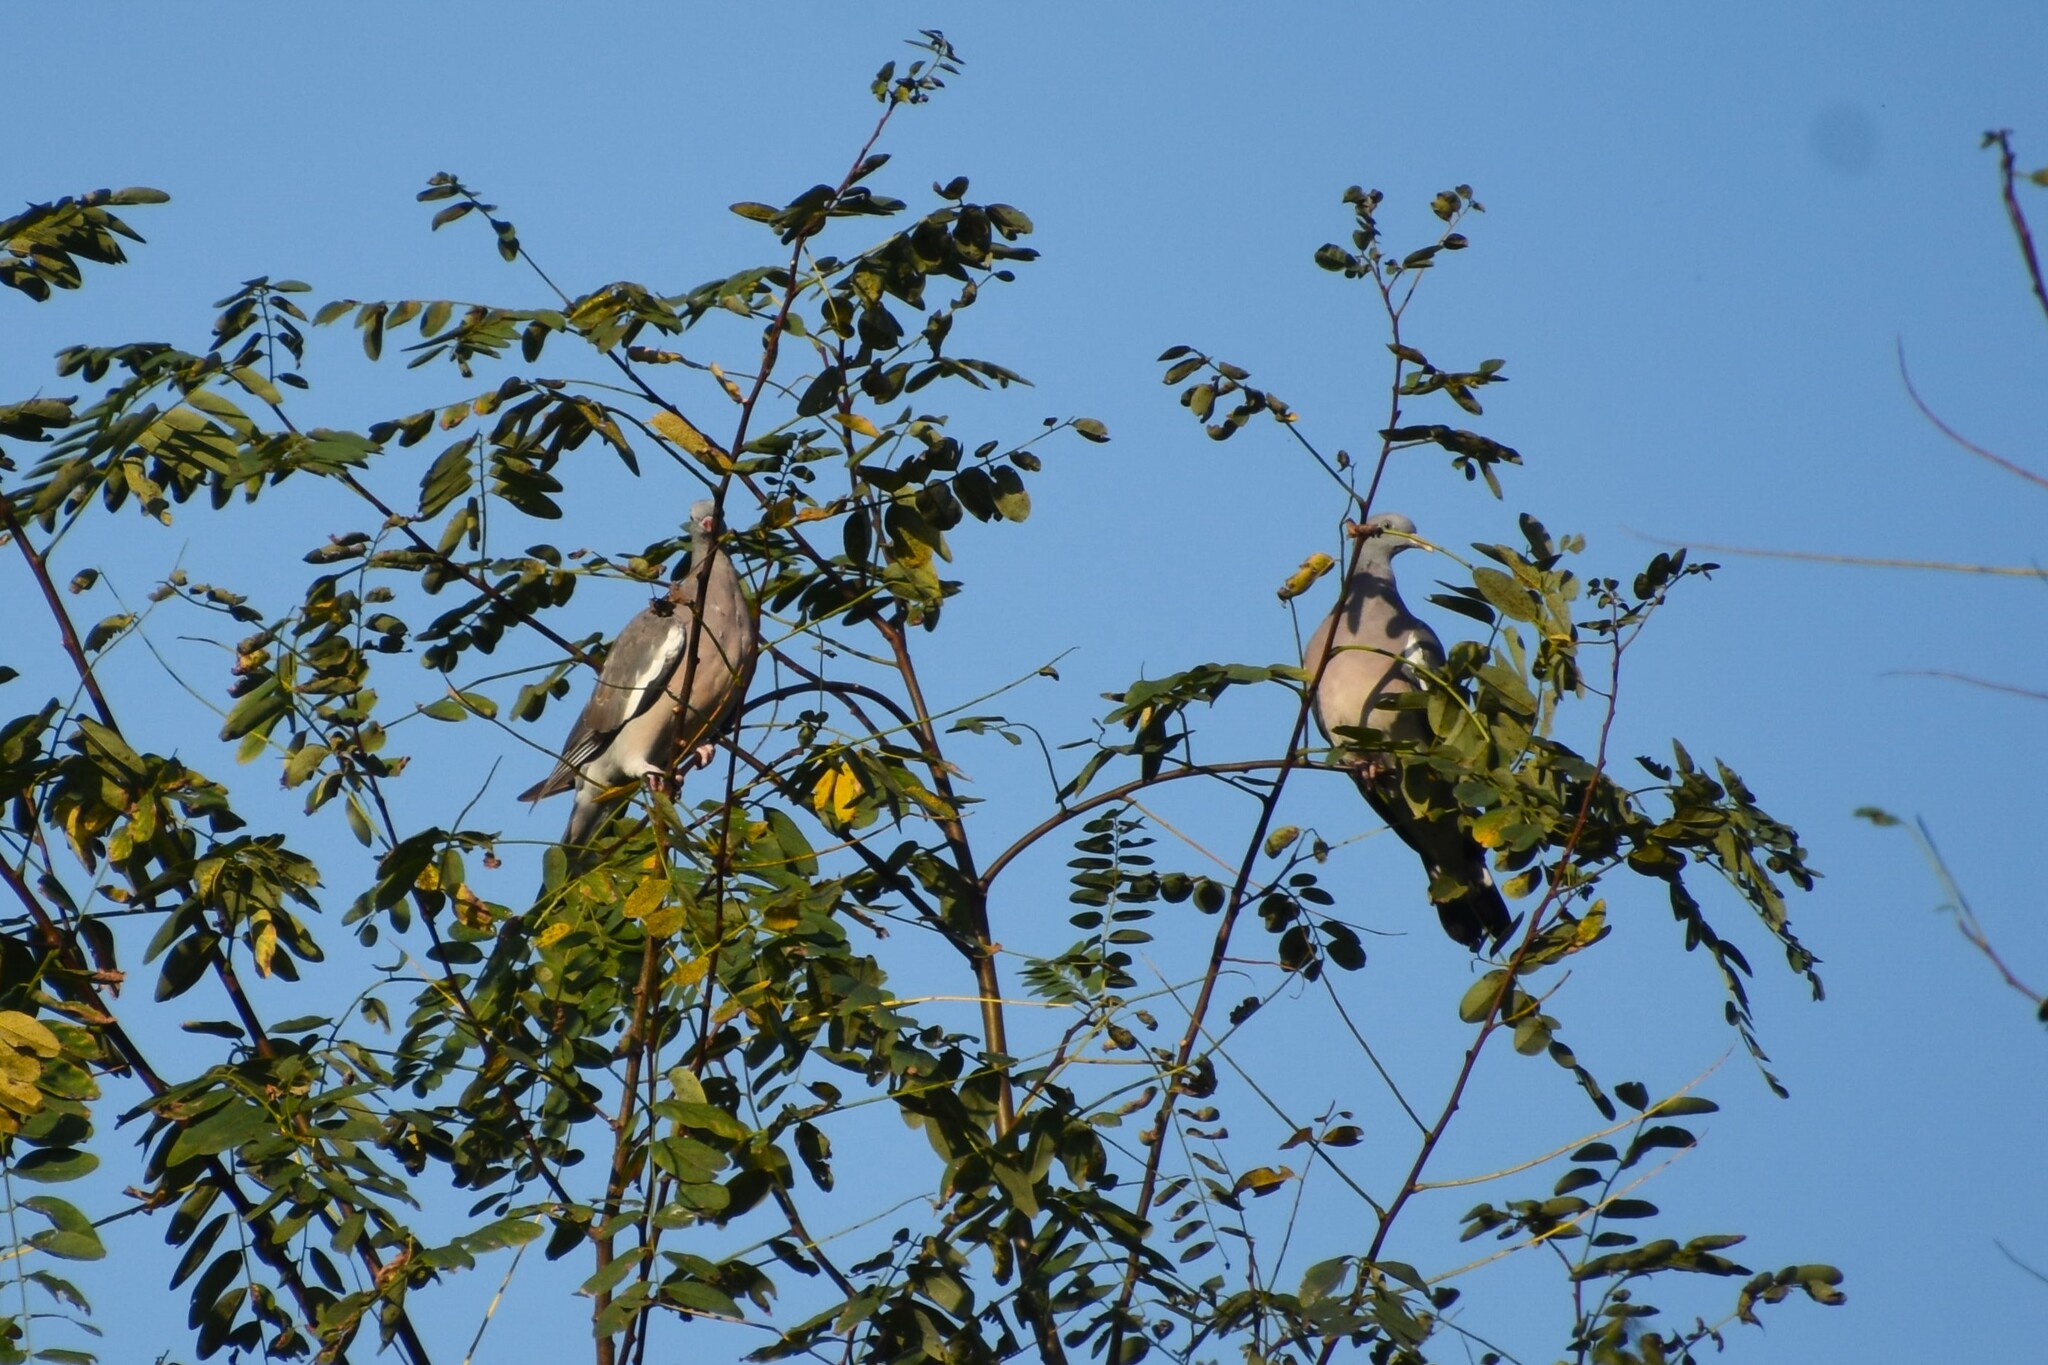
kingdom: Animalia
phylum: Chordata
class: Aves
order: Columbiformes
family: Columbidae
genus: Columba
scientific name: Columba palumbus
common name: Common wood pigeon
